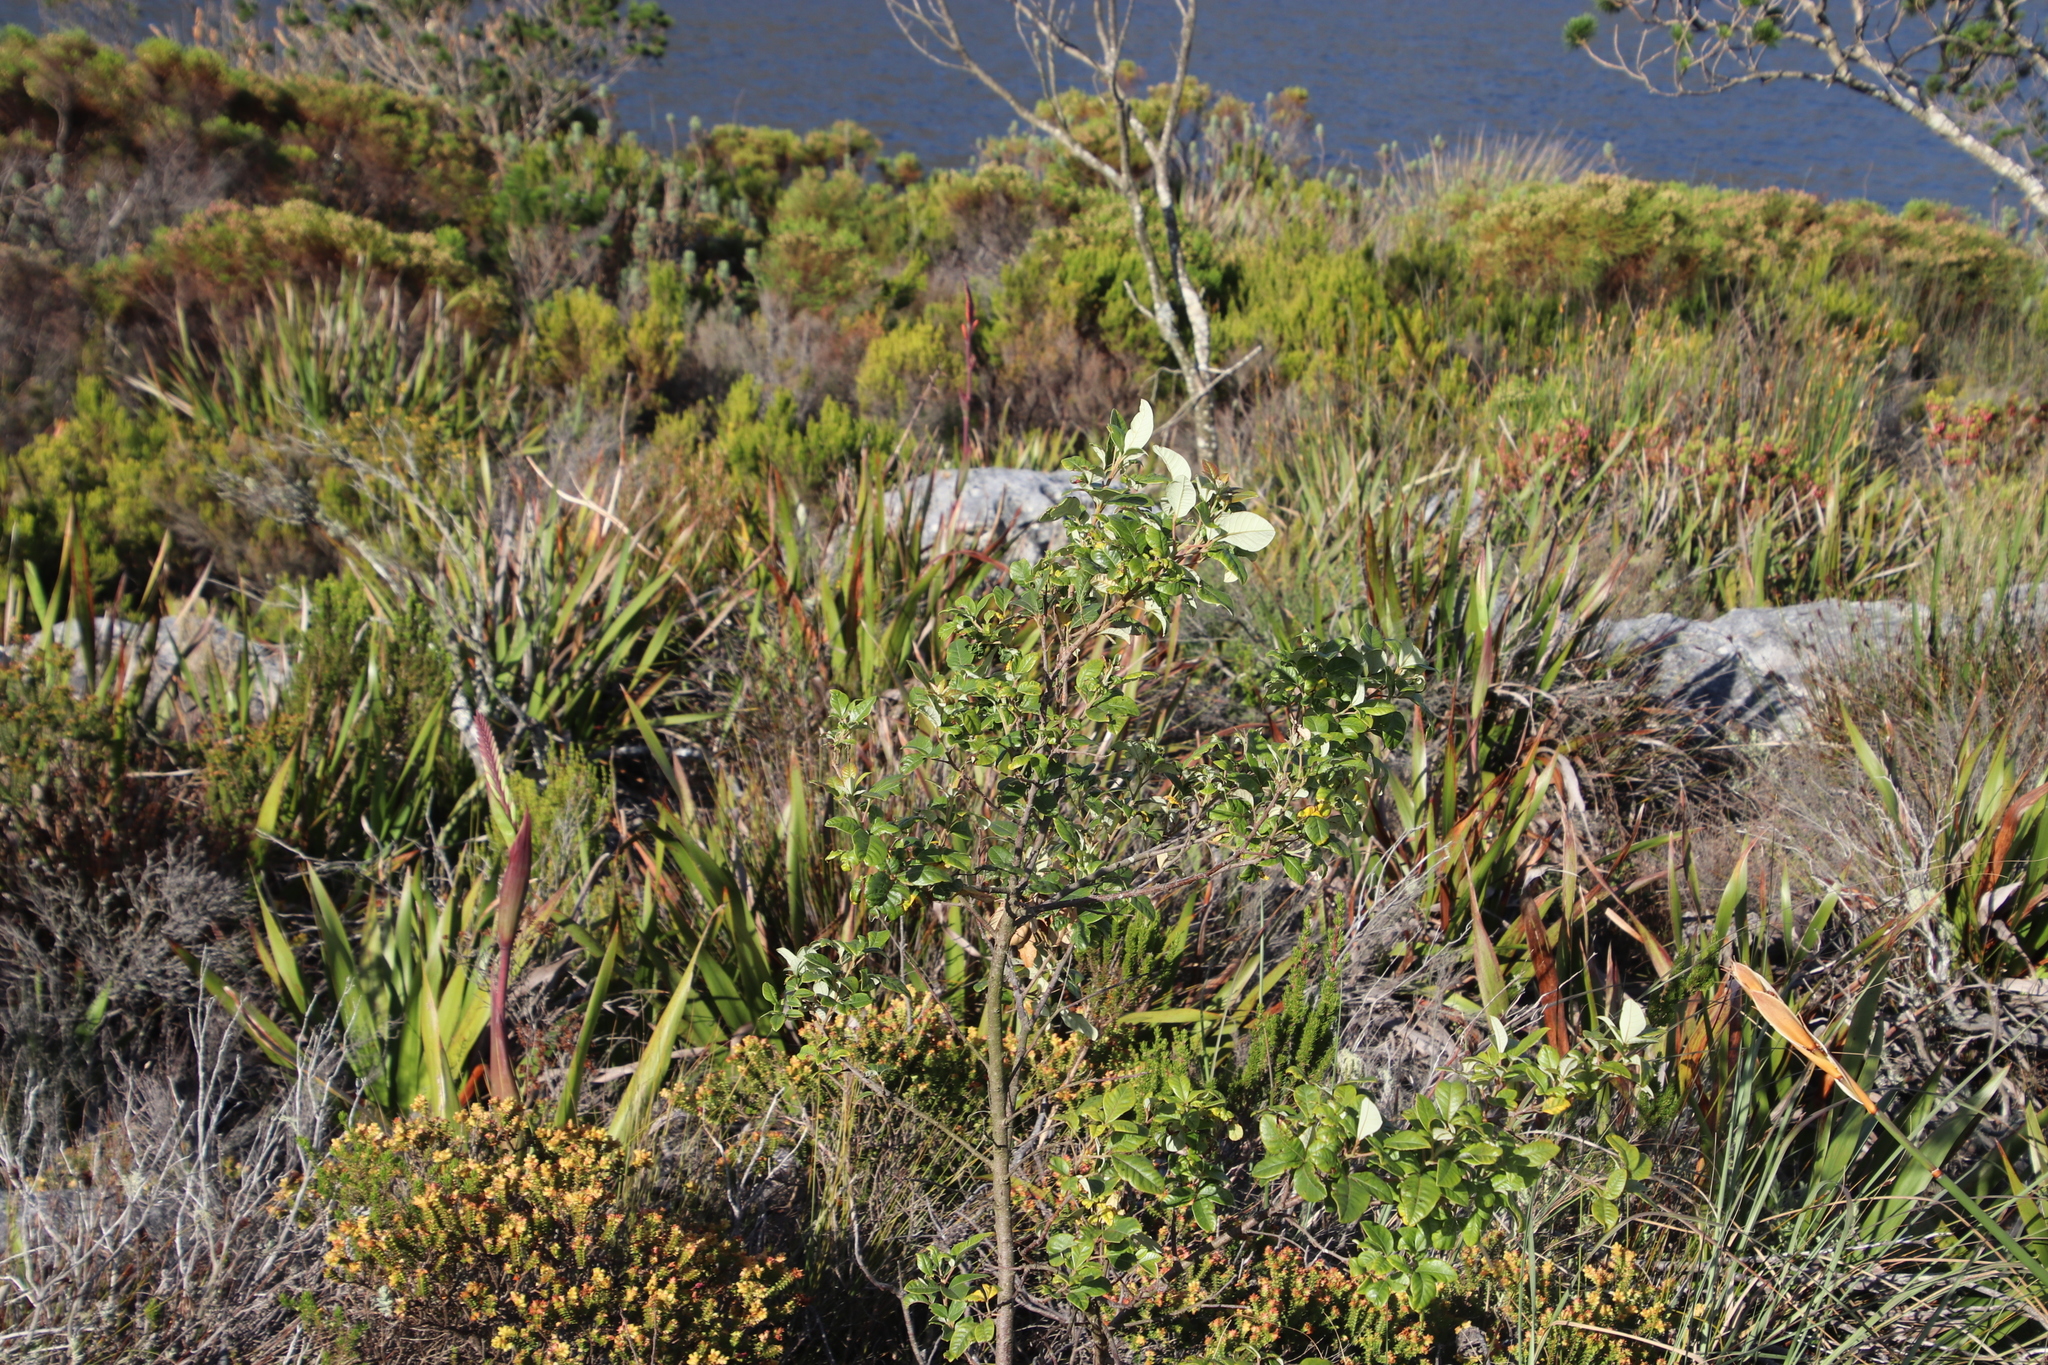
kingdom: Plantae
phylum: Tracheophyta
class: Magnoliopsida
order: Sapindales
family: Anacardiaceae
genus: Searsia
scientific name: Searsia tomentosa
